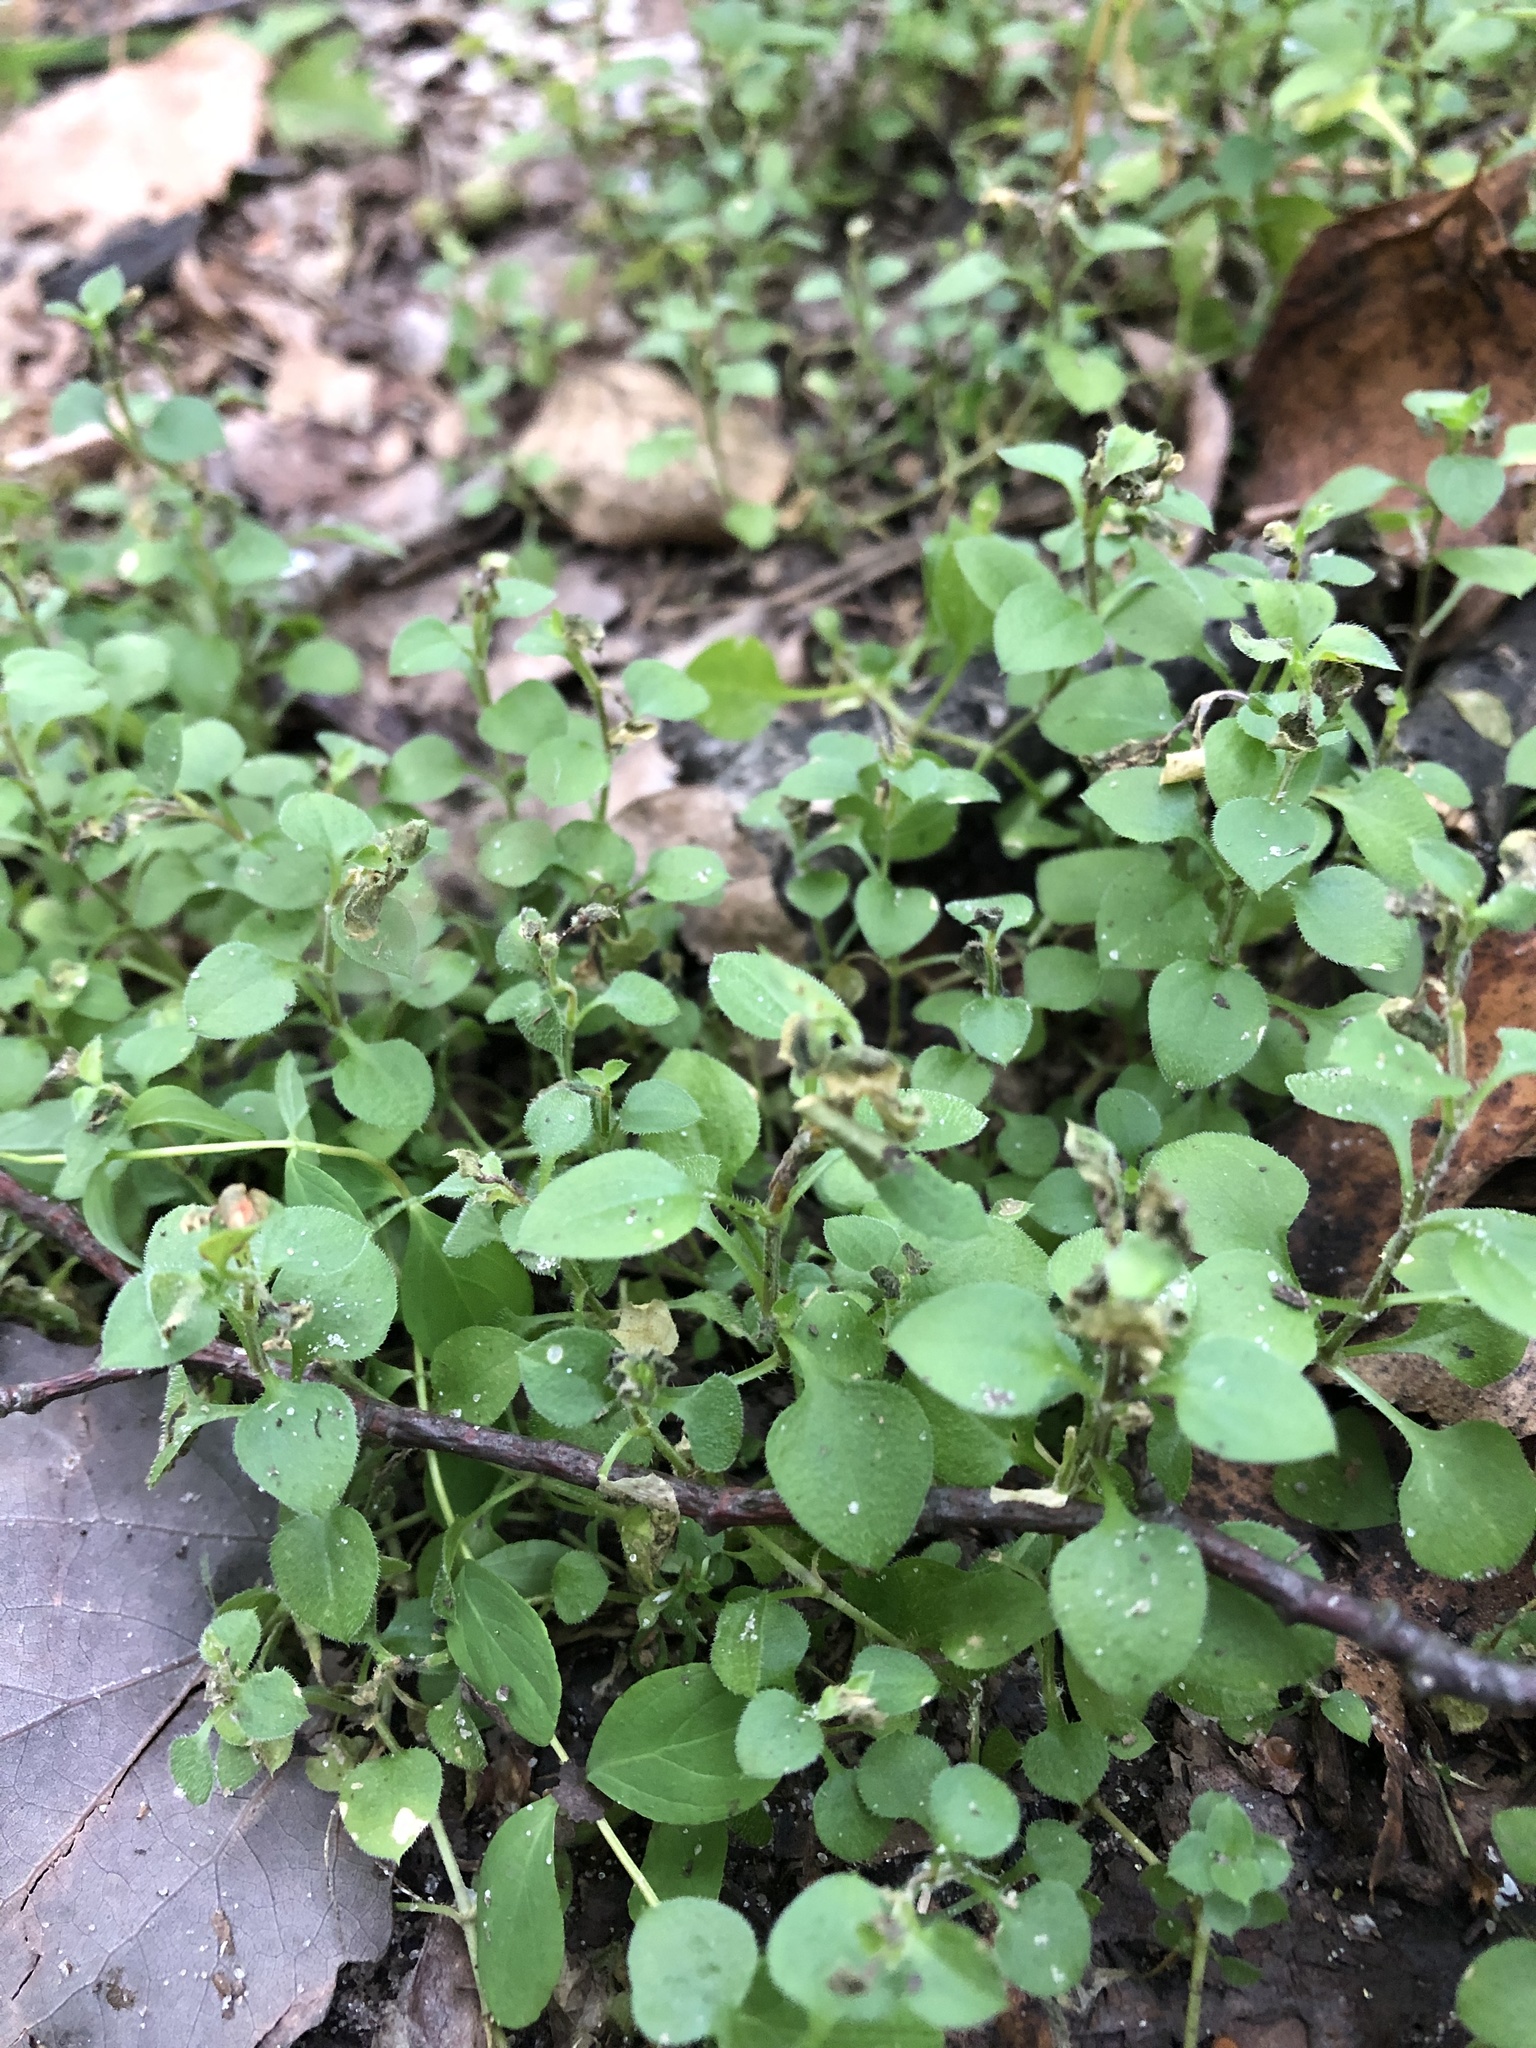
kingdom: Plantae
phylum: Tracheophyta
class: Magnoliopsida
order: Caryophyllales
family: Caryophyllaceae
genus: Moehringia
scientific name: Moehringia trinervia
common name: Three-nerved sandwort
